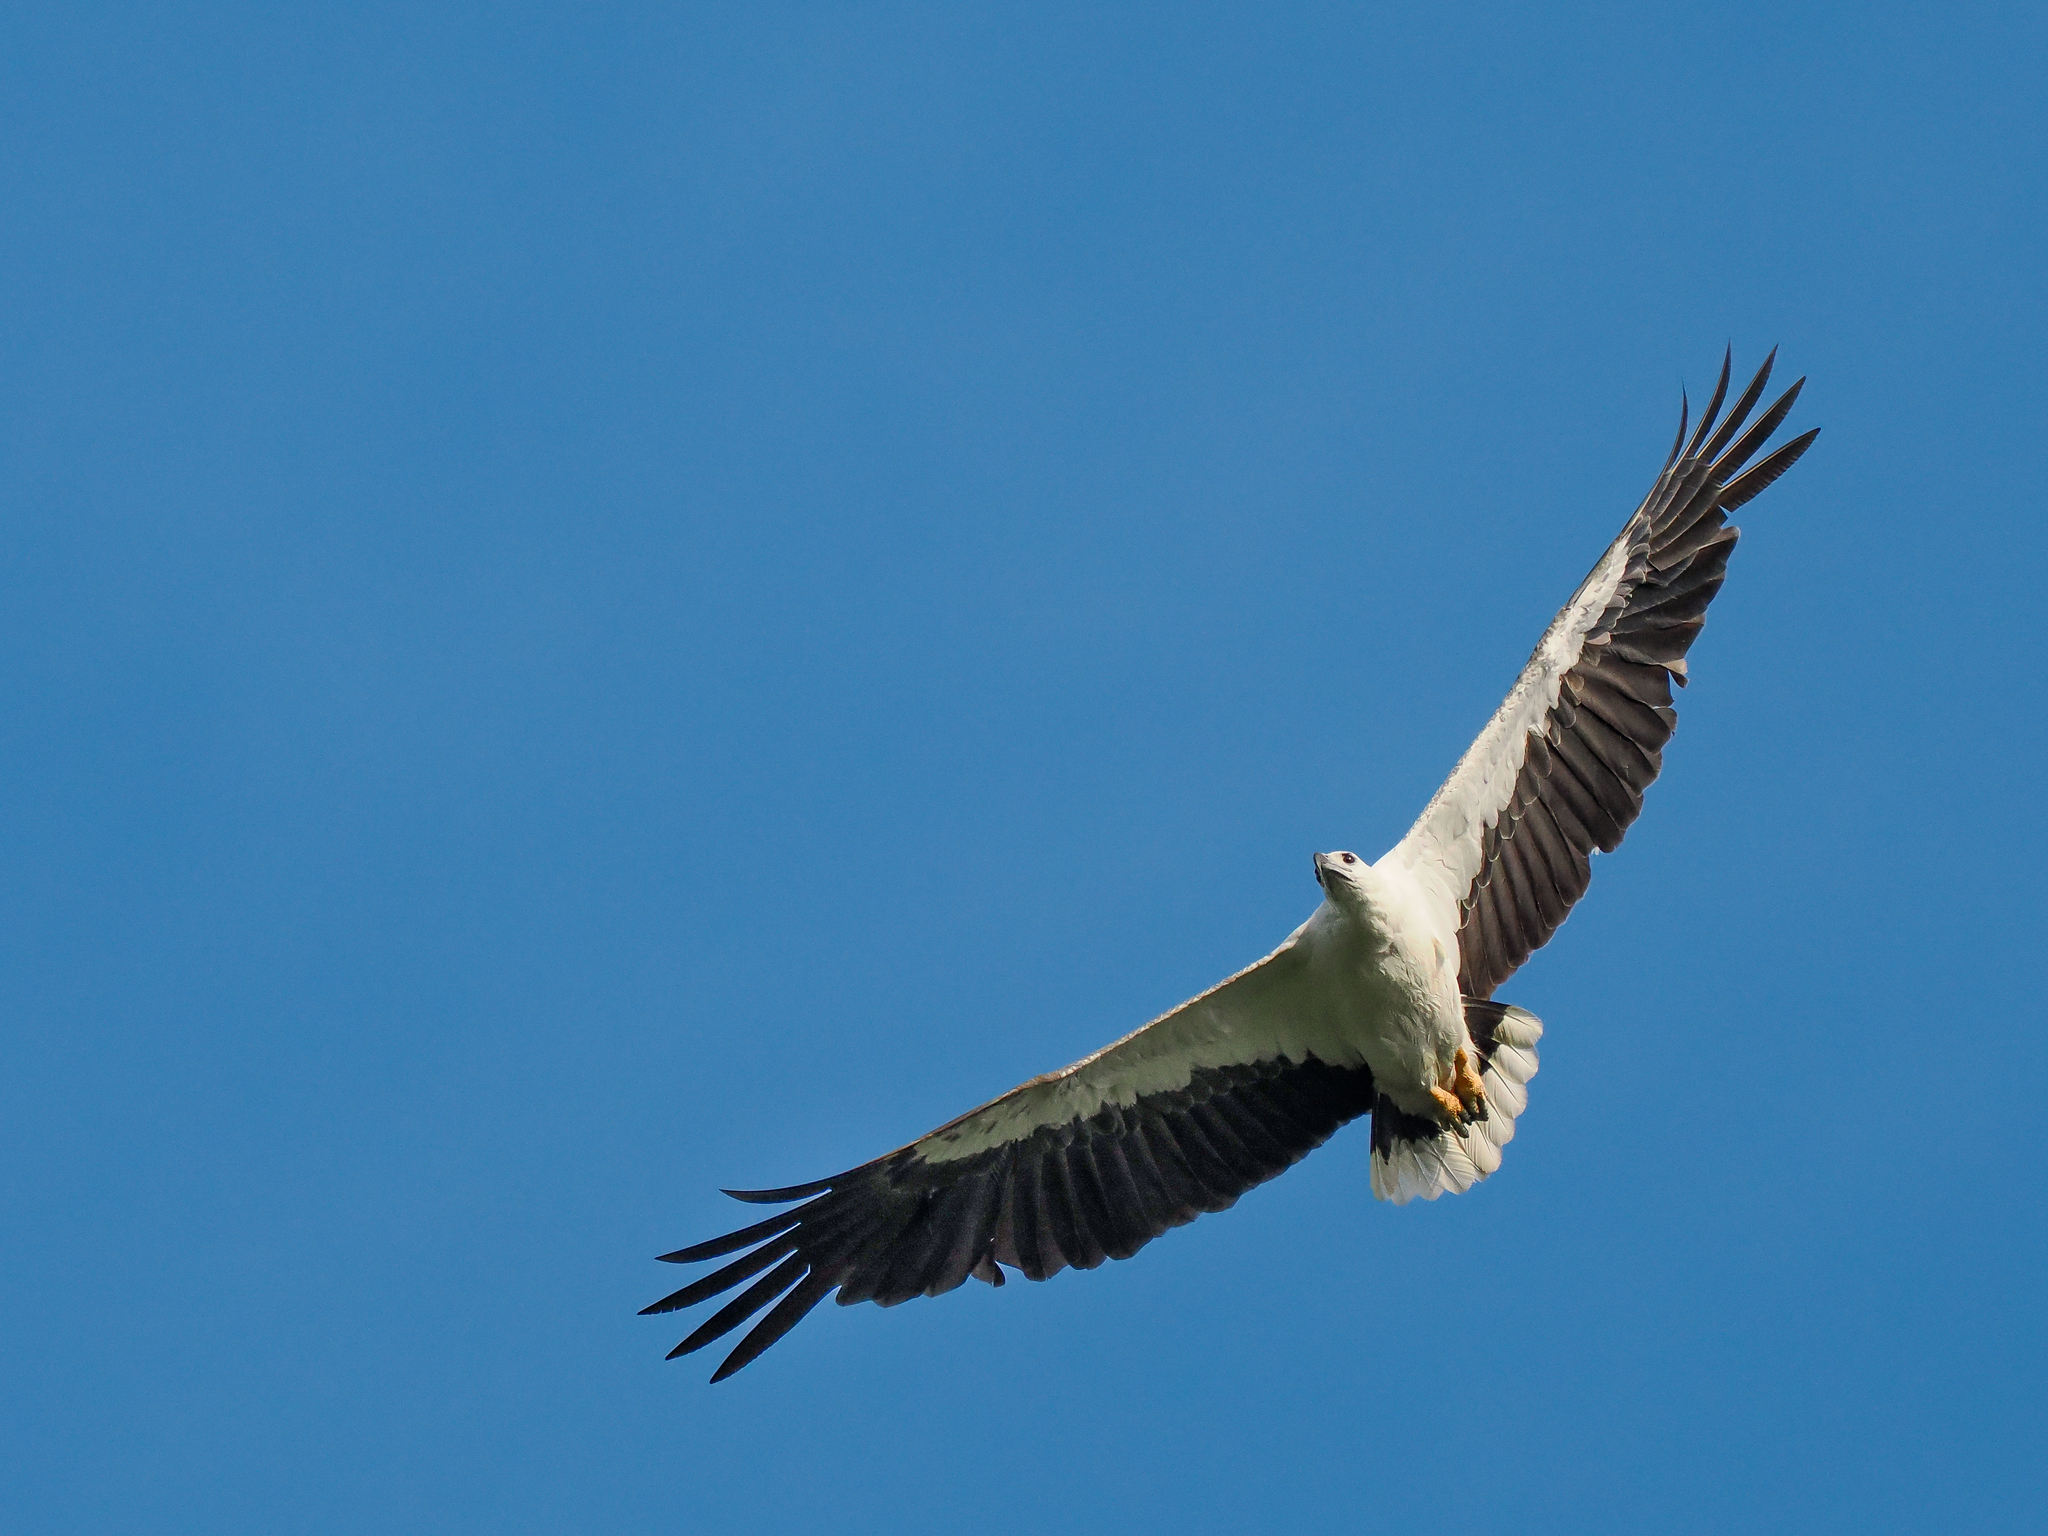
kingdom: Animalia
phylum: Chordata
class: Aves
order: Accipitriformes
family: Accipitridae
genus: Haliaeetus
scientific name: Haliaeetus leucogaster
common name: White-bellied sea eagle
